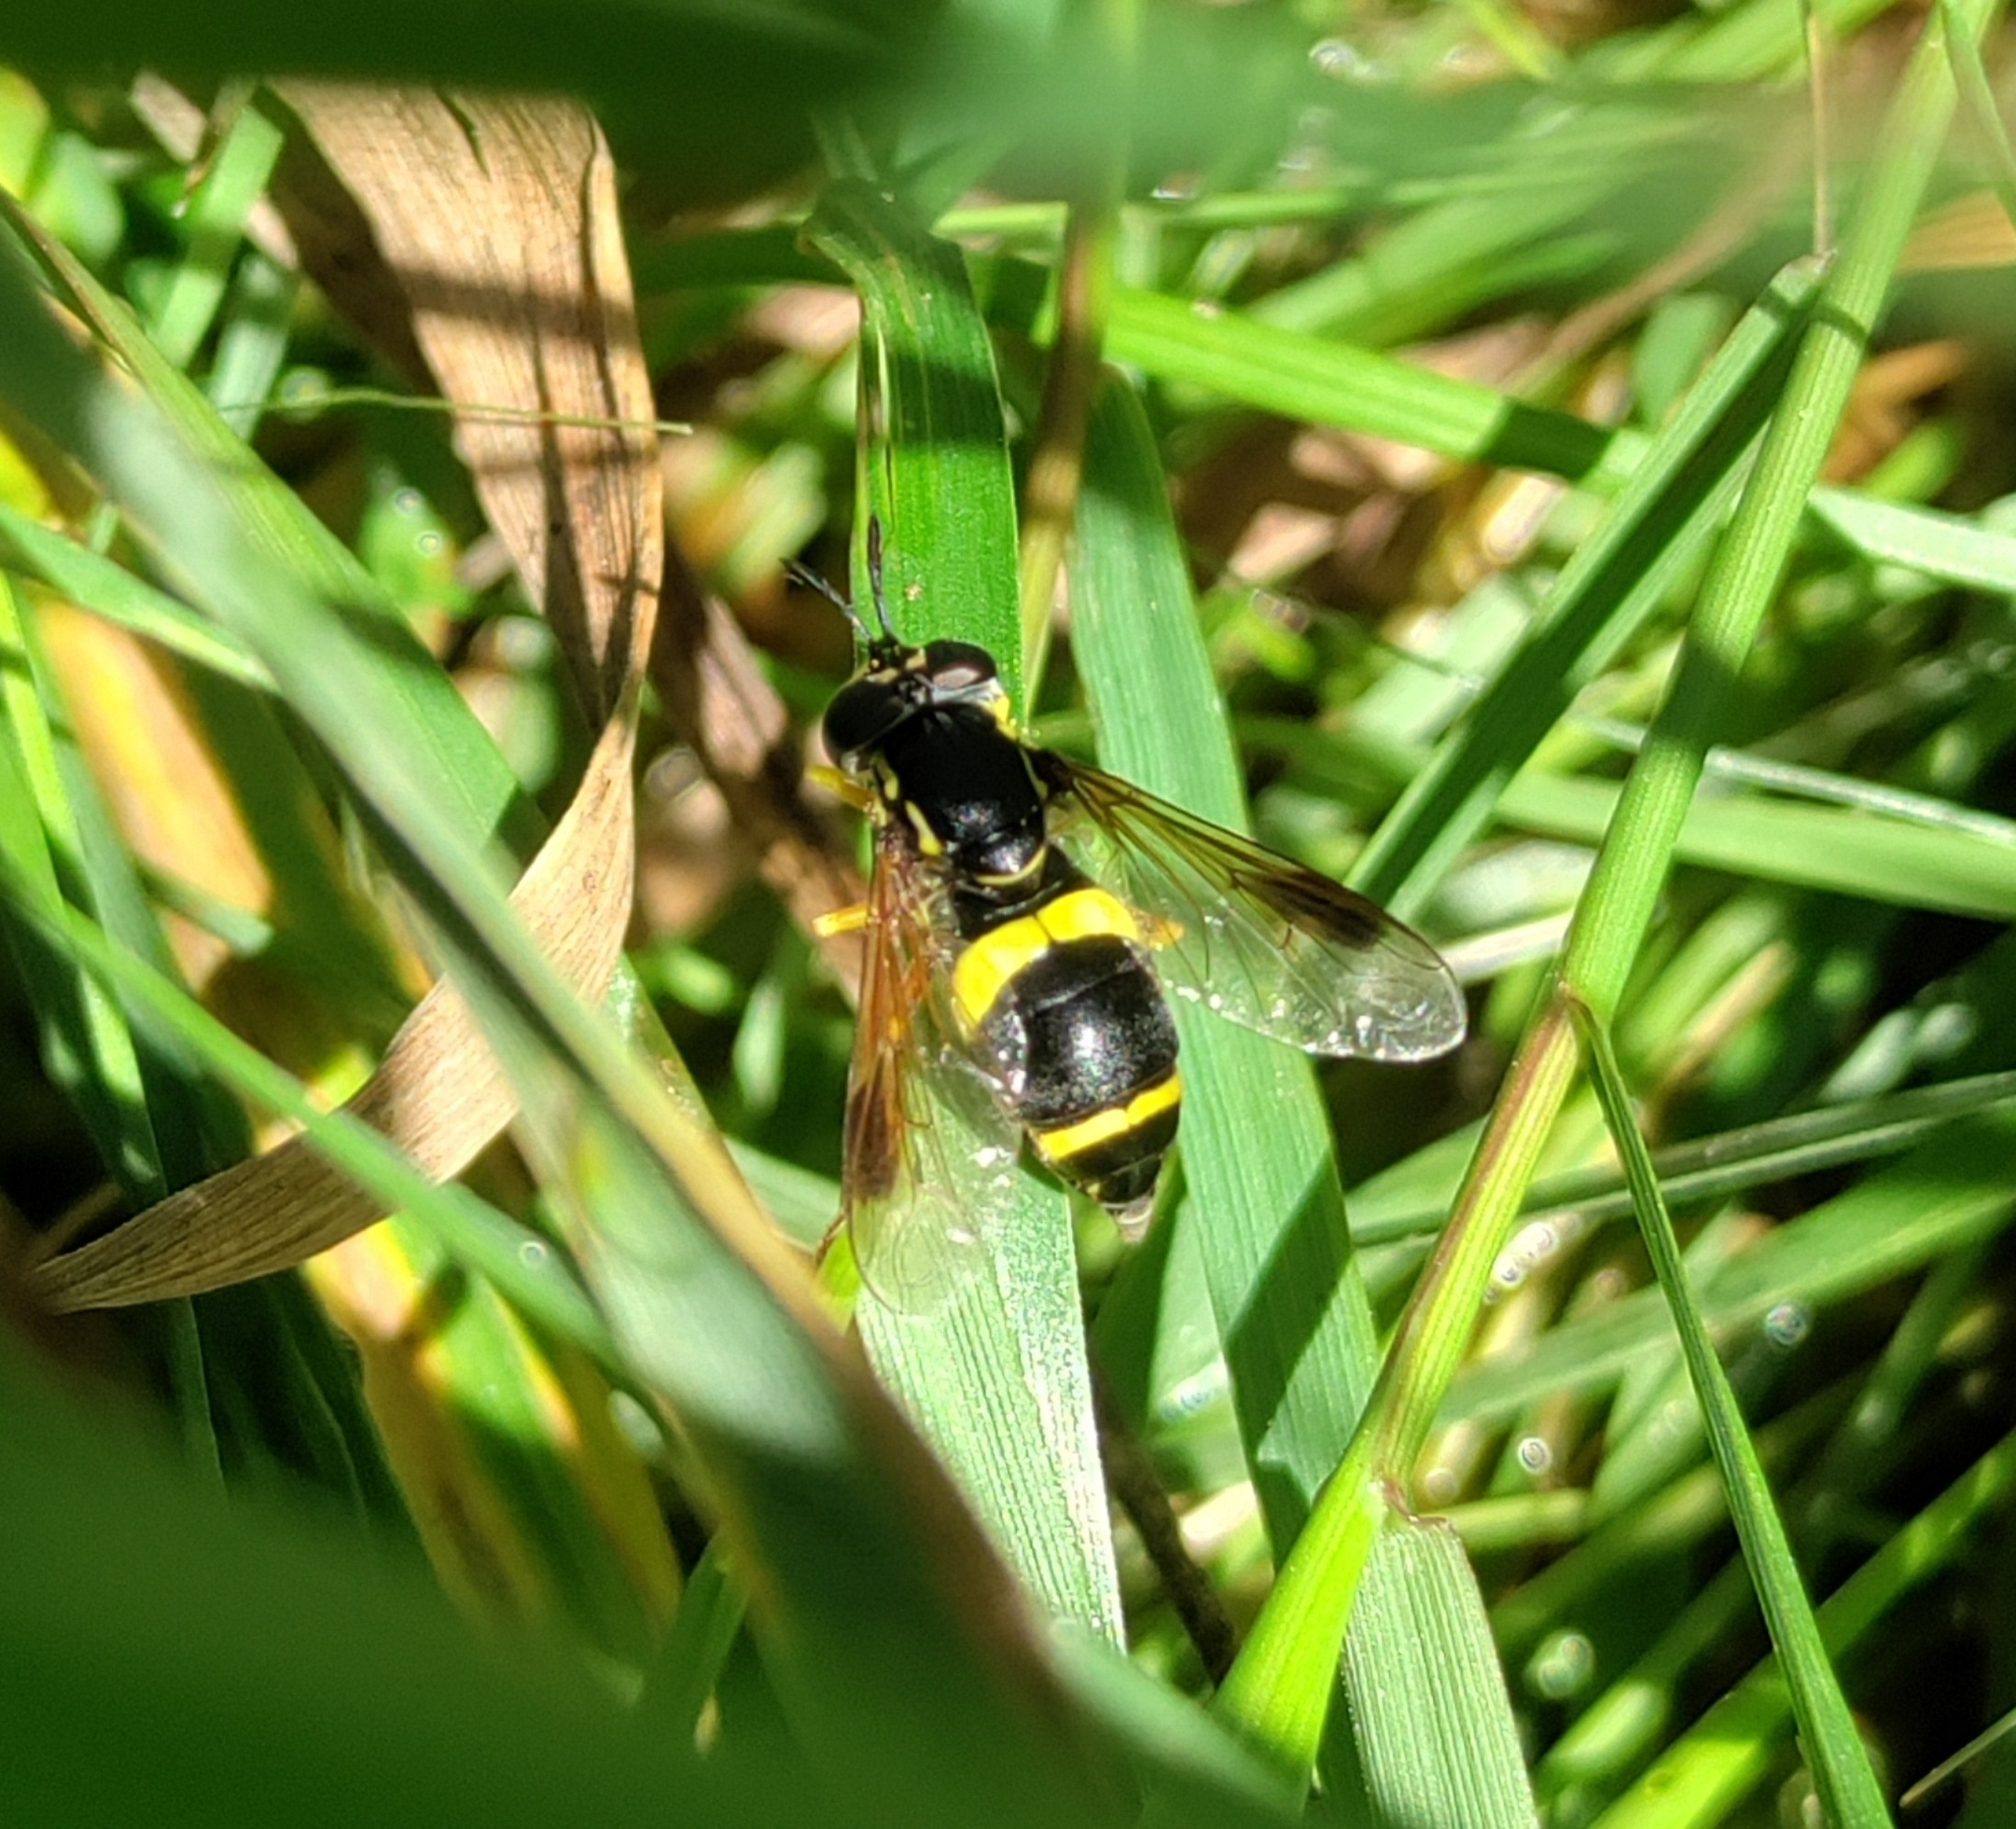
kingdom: Animalia
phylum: Arthropoda
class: Insecta
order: Diptera
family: Syrphidae
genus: Chrysotoxum
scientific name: Chrysotoxum bicincta
